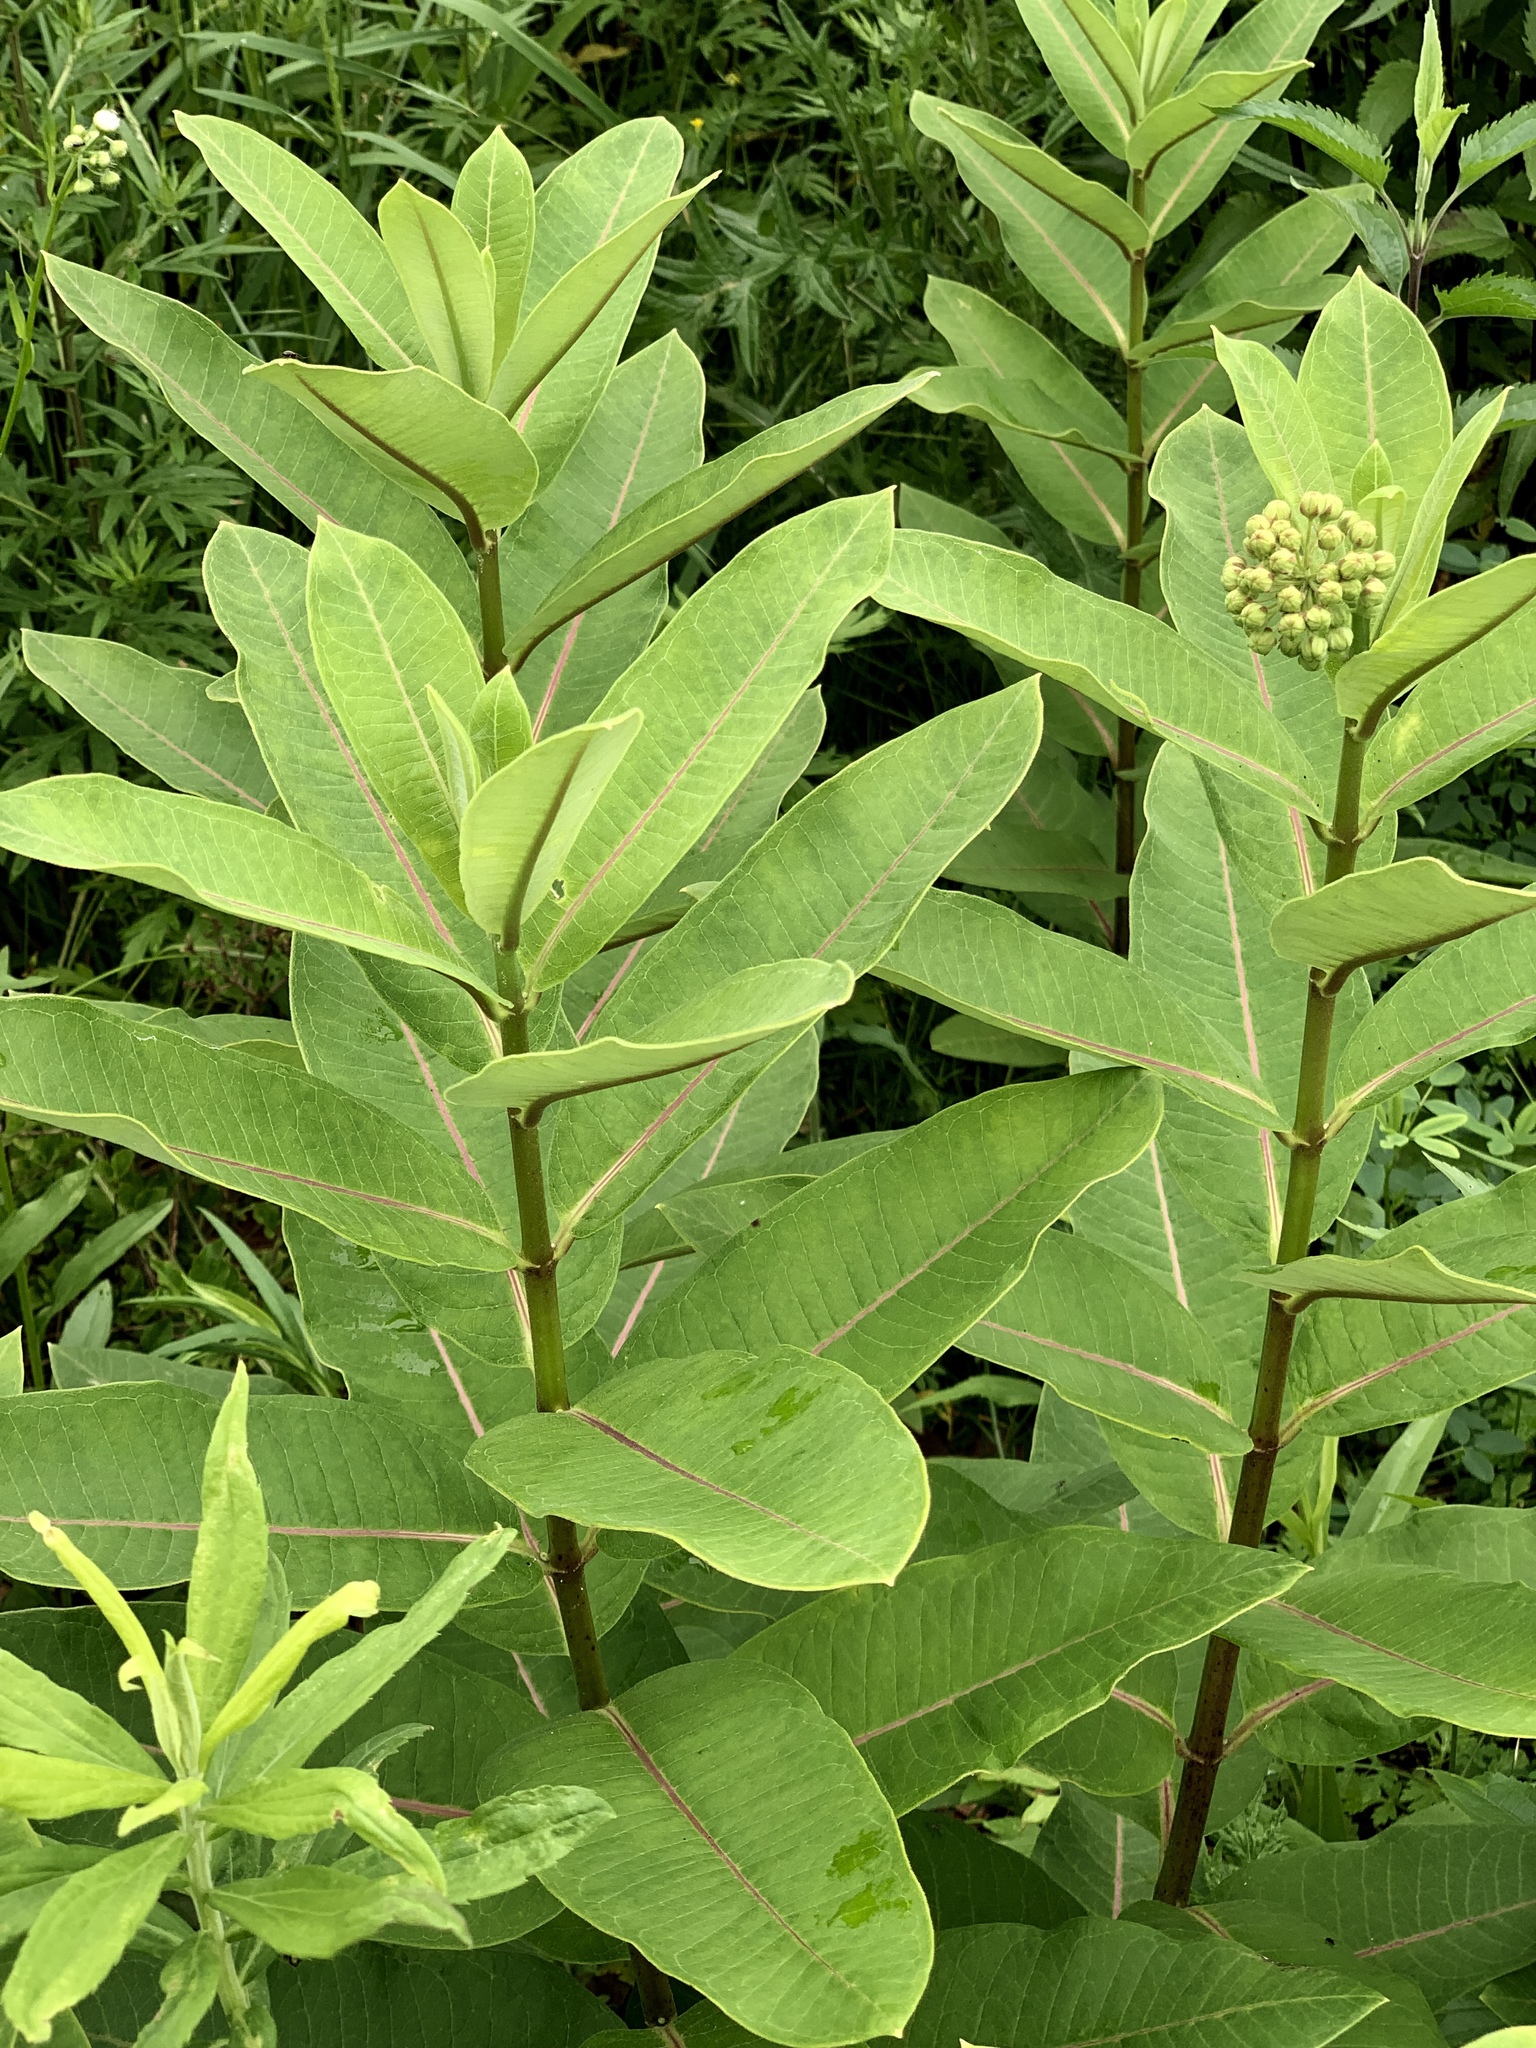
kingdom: Plantae
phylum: Tracheophyta
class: Magnoliopsida
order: Gentianales
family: Apocynaceae
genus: Asclepias
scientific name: Asclepias syriaca
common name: Common milkweed
